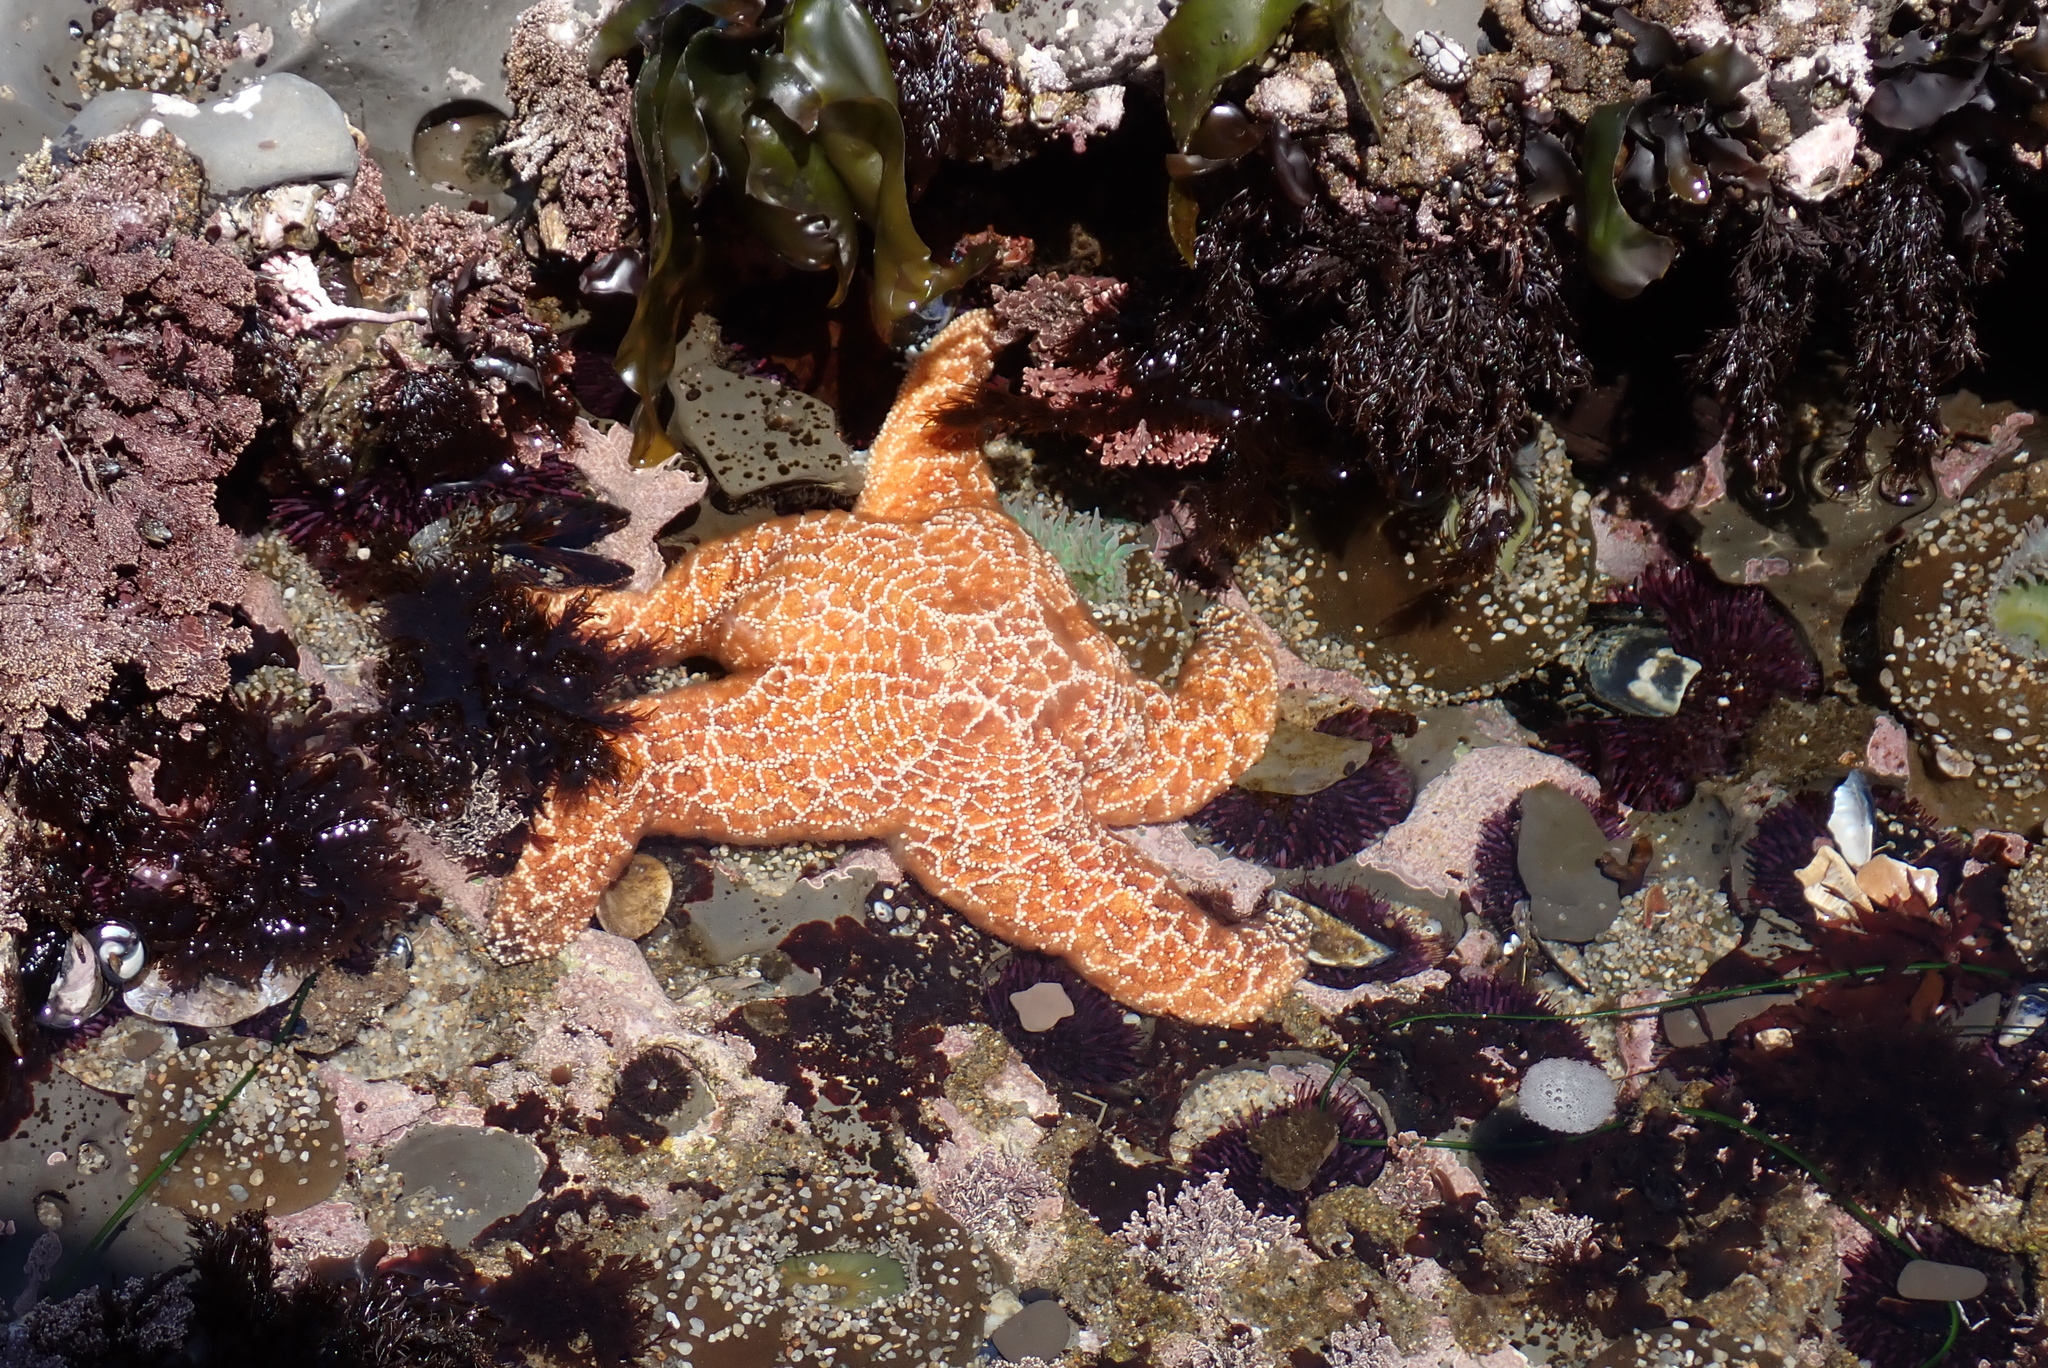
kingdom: Animalia
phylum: Echinodermata
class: Asteroidea
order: Forcipulatida
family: Asteriidae
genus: Pisaster
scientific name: Pisaster ochraceus
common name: Ochre stars
